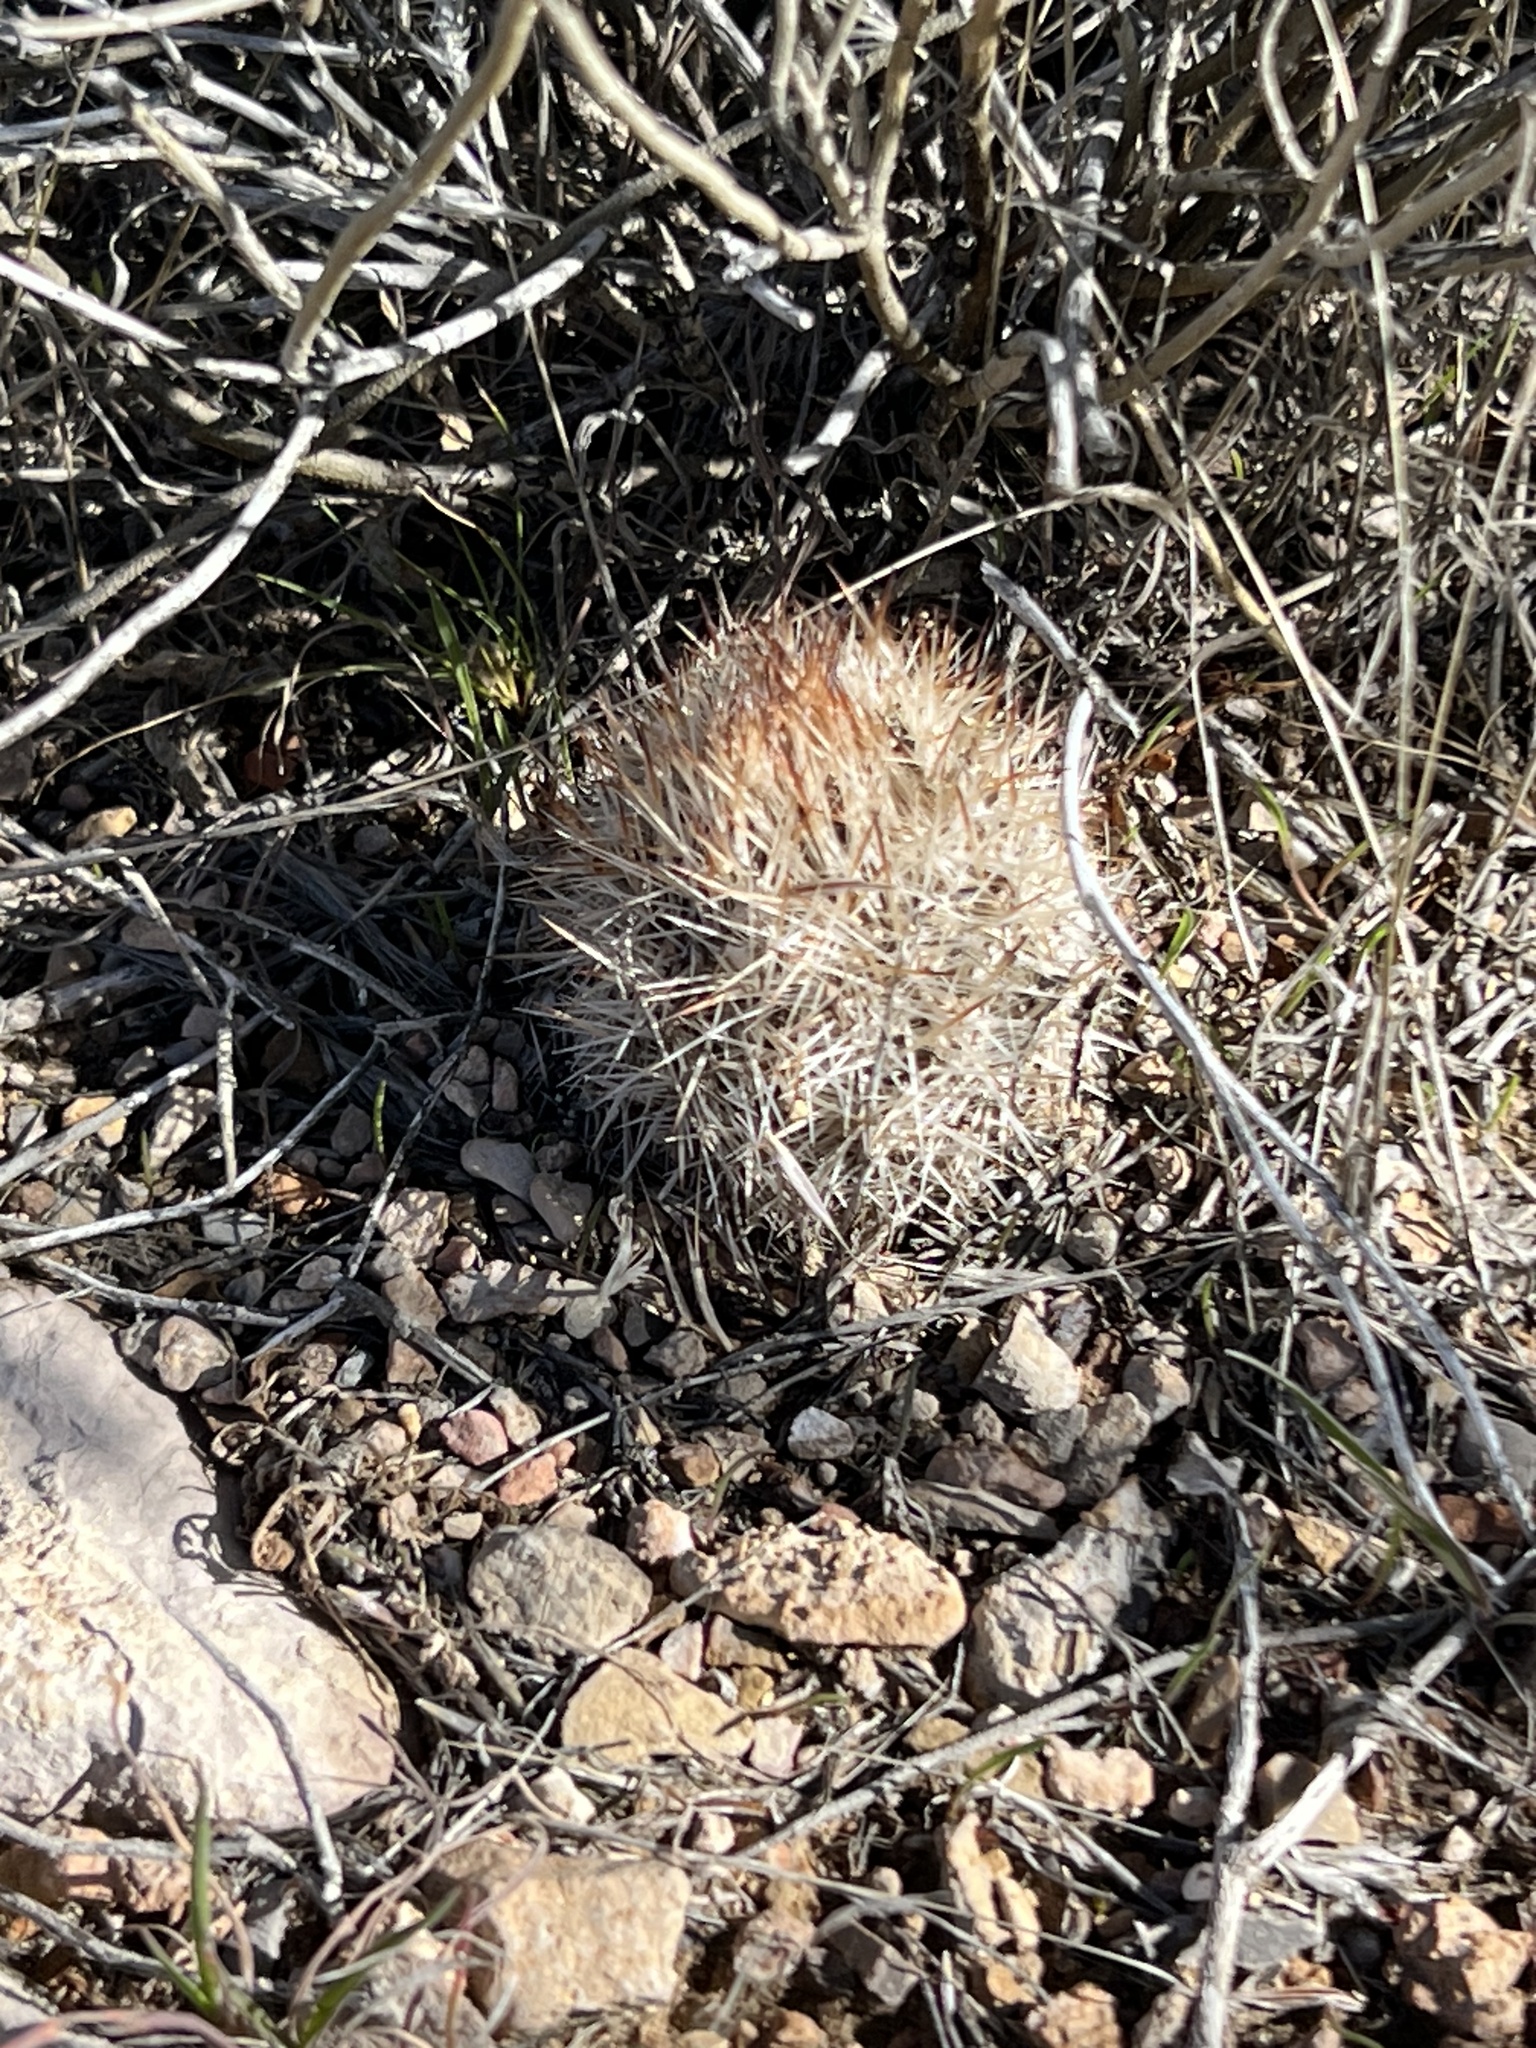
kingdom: Plantae
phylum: Tracheophyta
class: Magnoliopsida
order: Caryophyllales
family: Cactaceae
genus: Pelecyphora
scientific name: Pelecyphora dasyacantha
